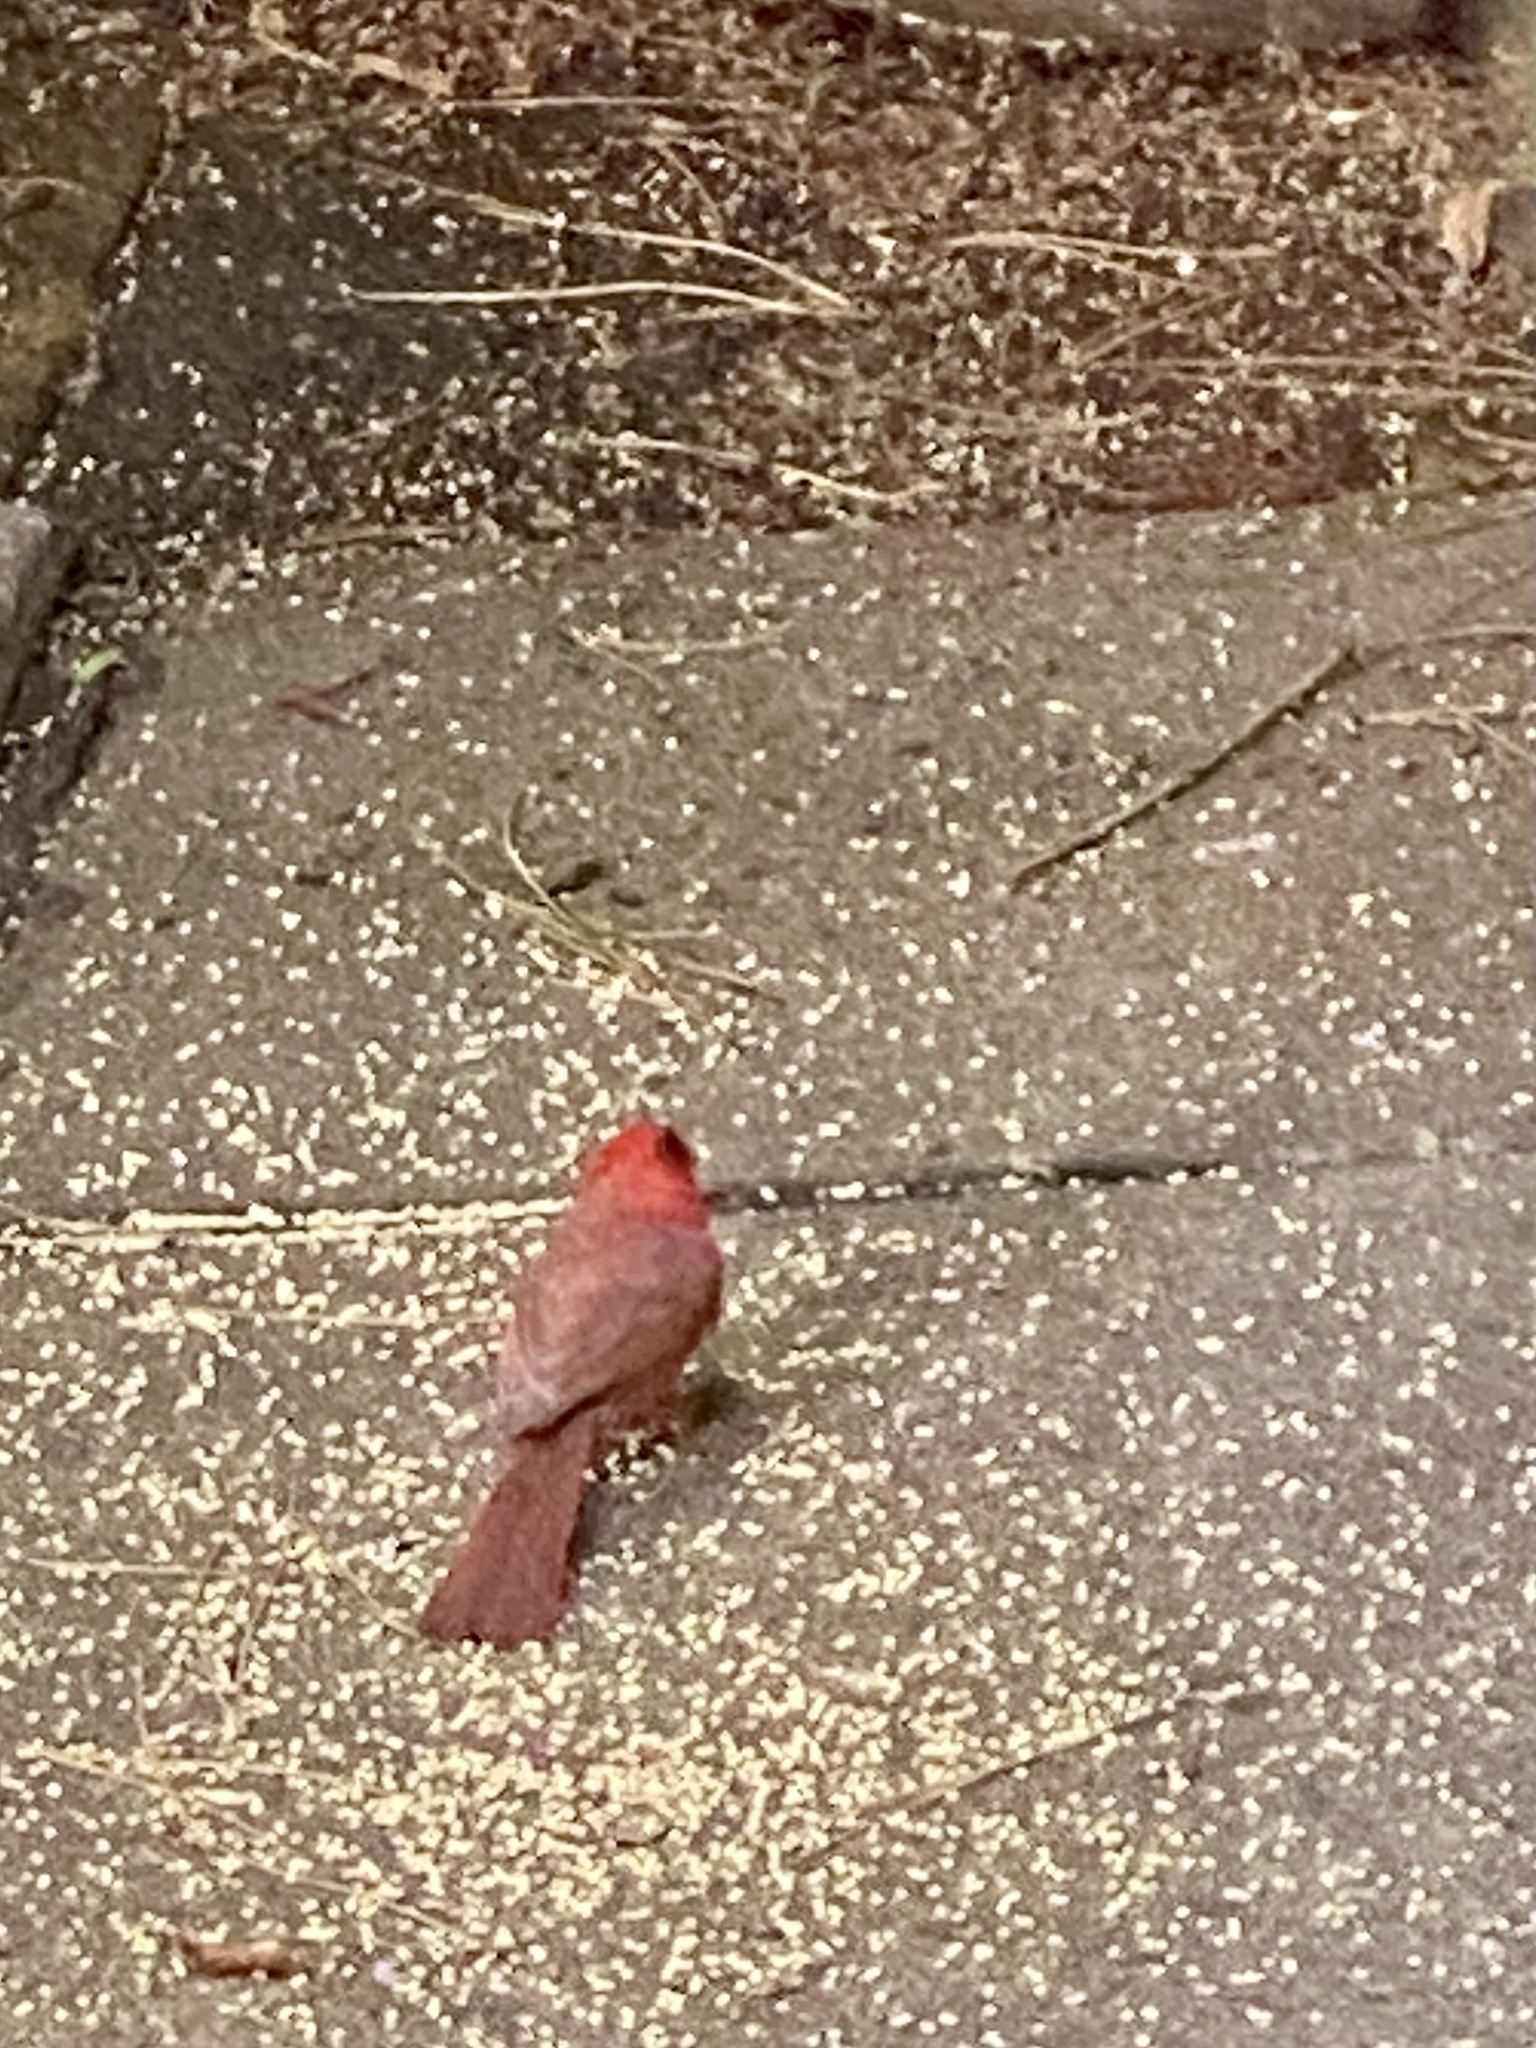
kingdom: Animalia
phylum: Chordata
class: Aves
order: Passeriformes
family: Cardinalidae
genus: Cardinalis
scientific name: Cardinalis cardinalis
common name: Northern cardinal
